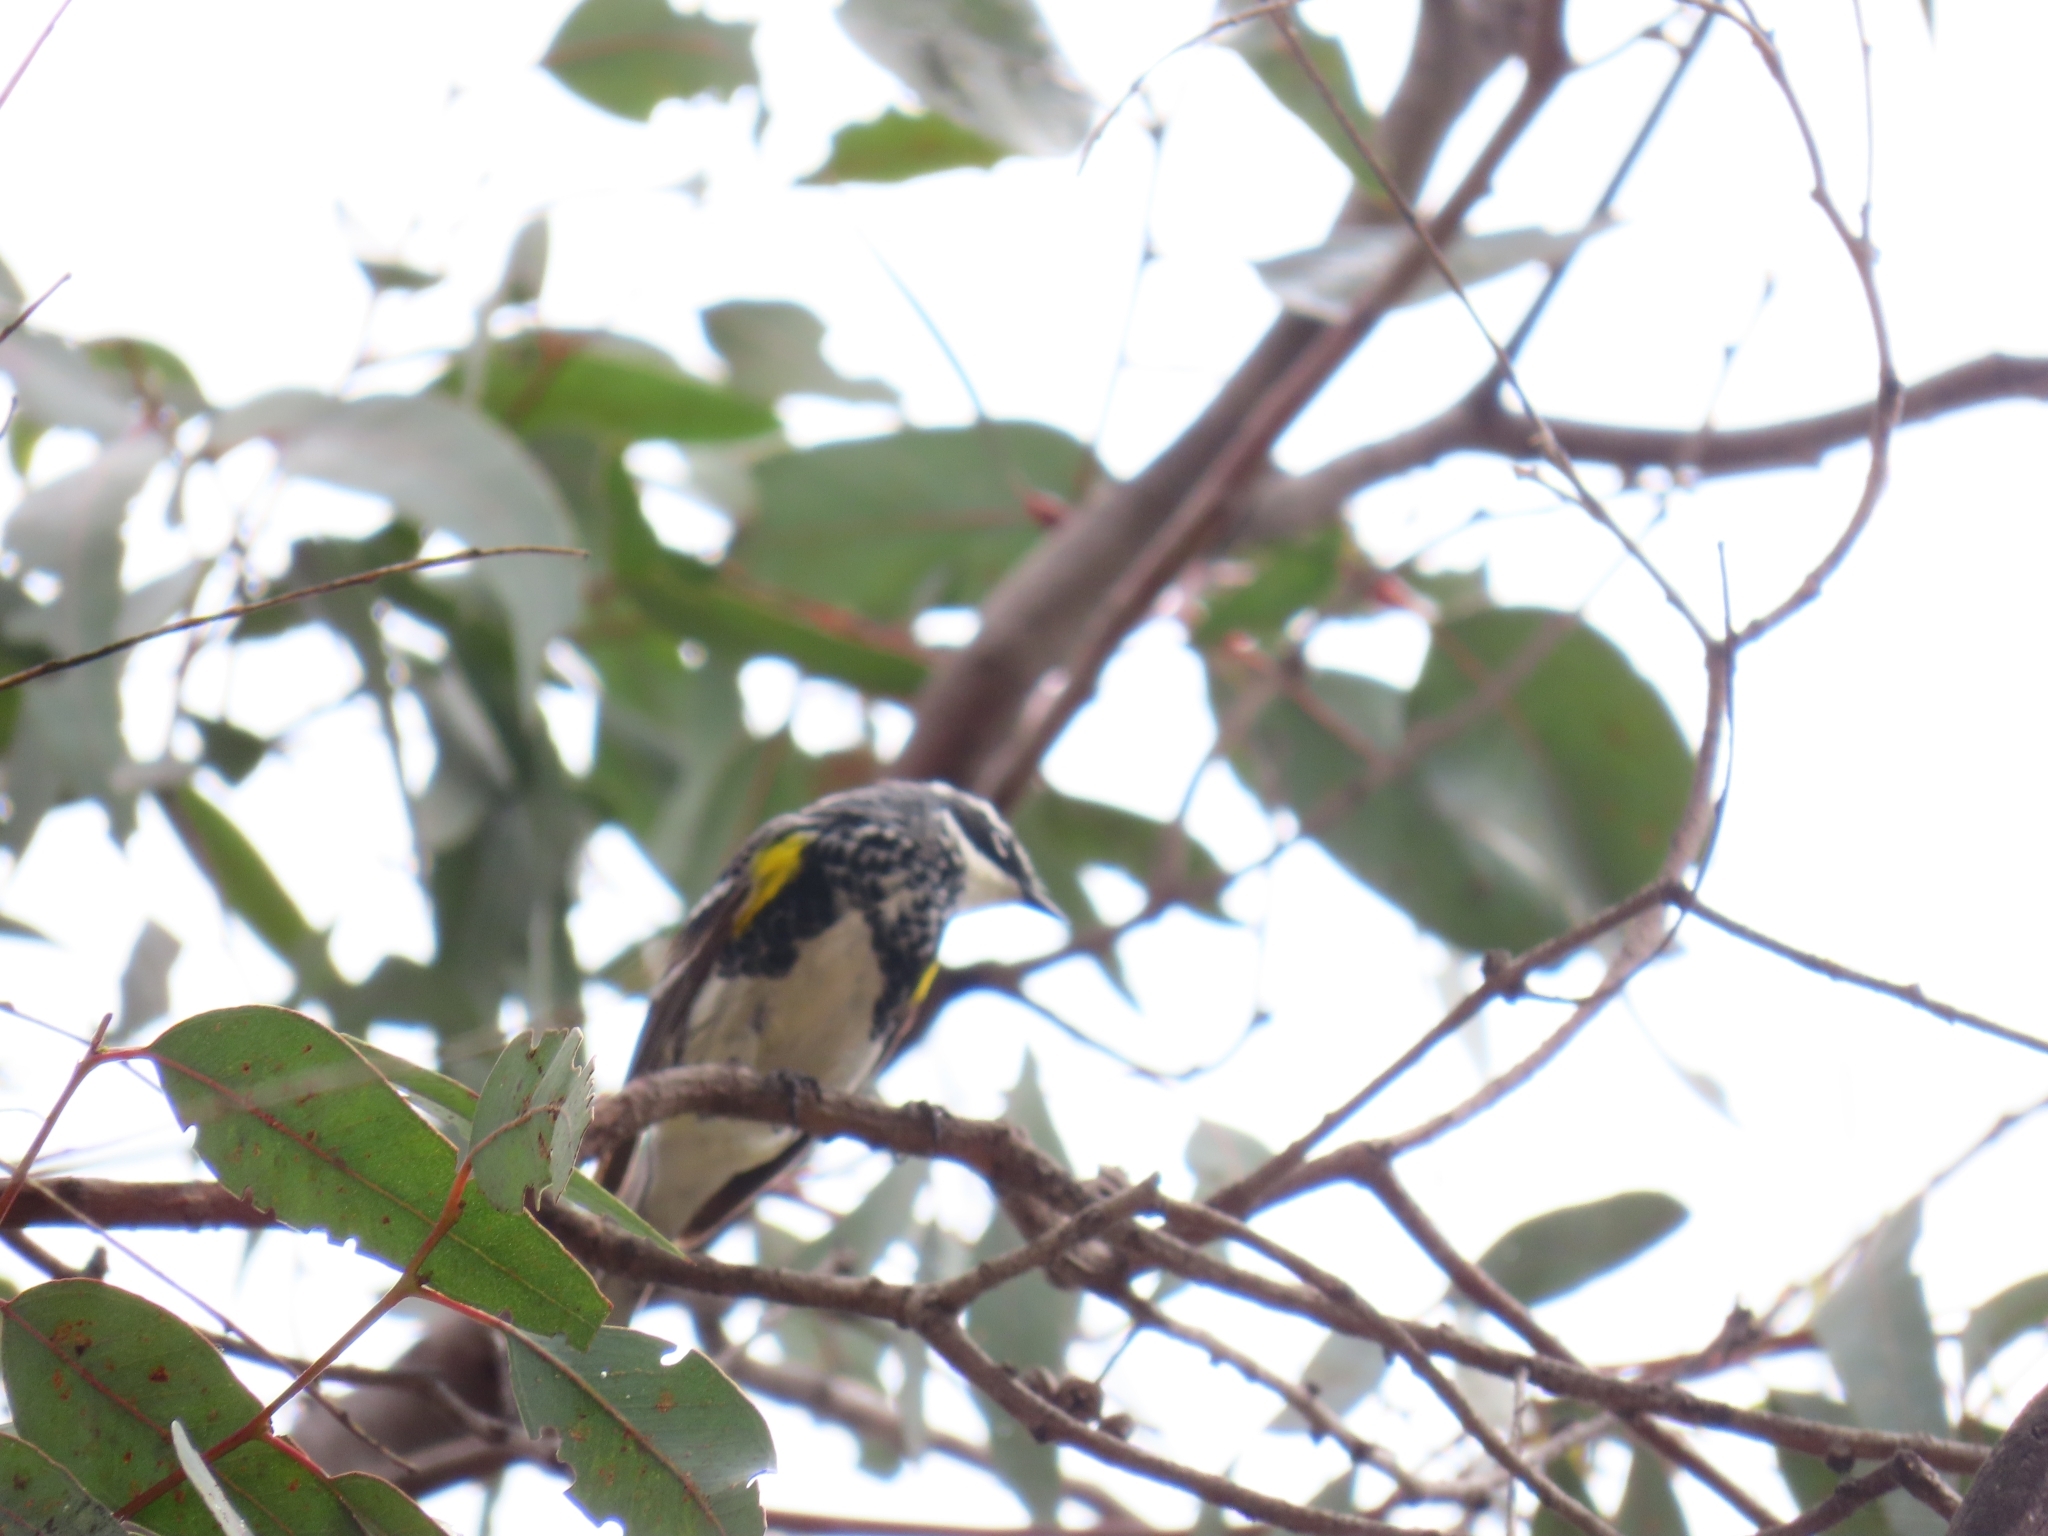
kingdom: Animalia
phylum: Chordata
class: Aves
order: Passeriformes
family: Parulidae
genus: Setophaga
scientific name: Setophaga coronata
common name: Myrtle warbler
